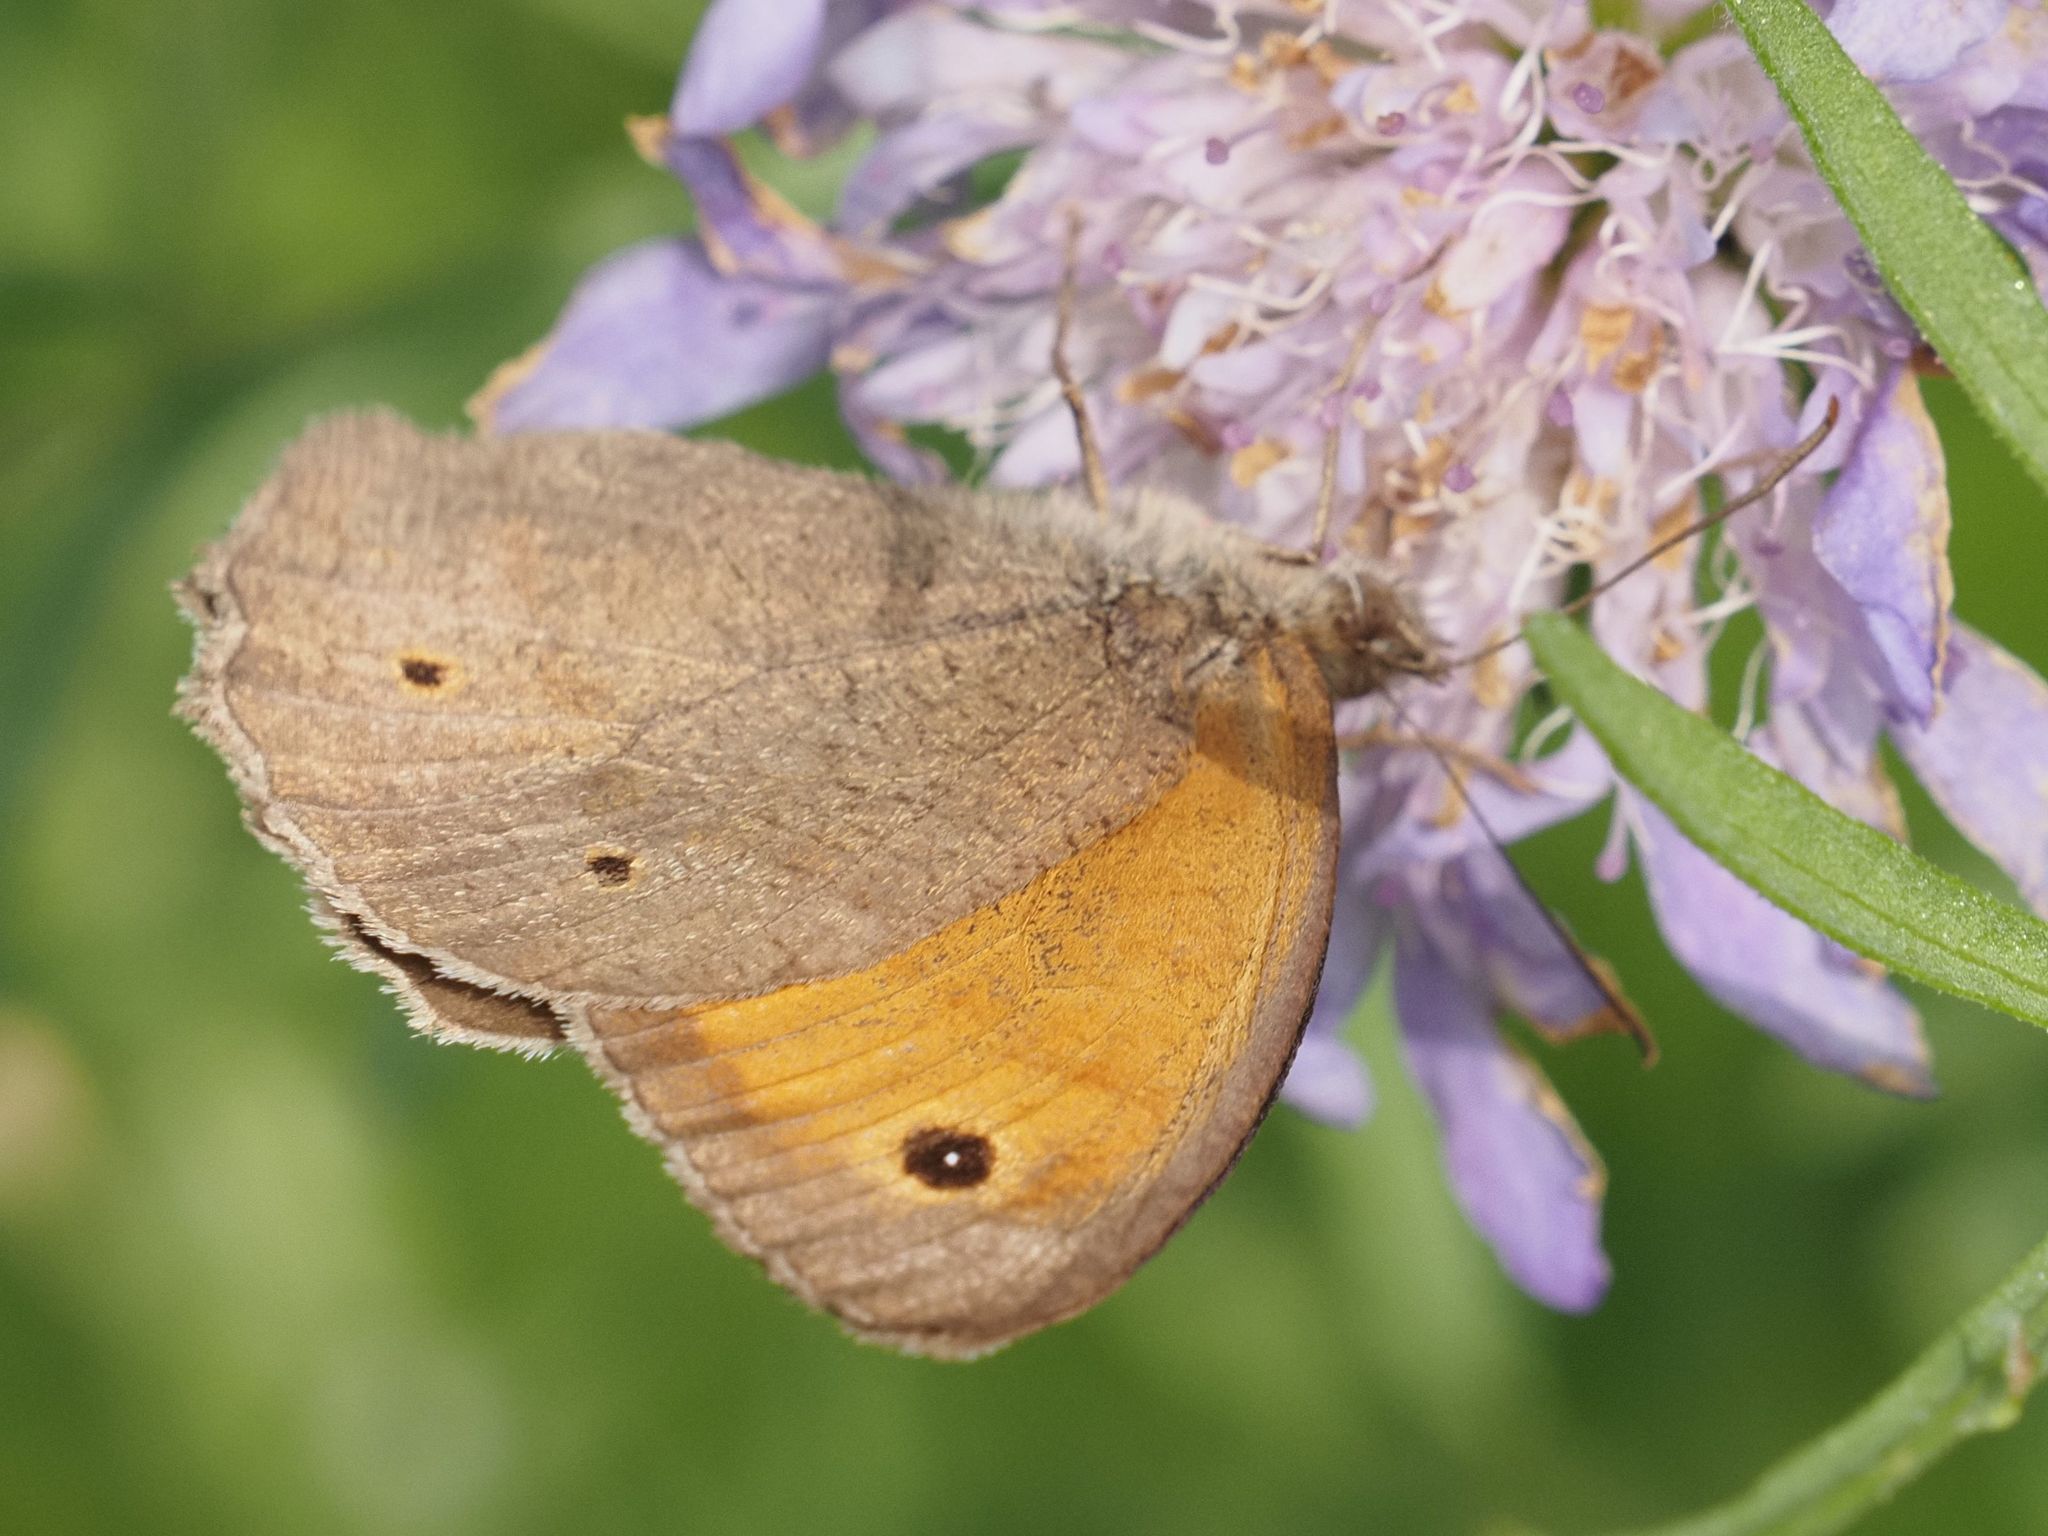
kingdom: Animalia
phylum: Arthropoda
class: Insecta
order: Lepidoptera
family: Nymphalidae
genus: Maniola
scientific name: Maniola jurtina
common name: Meadow brown
